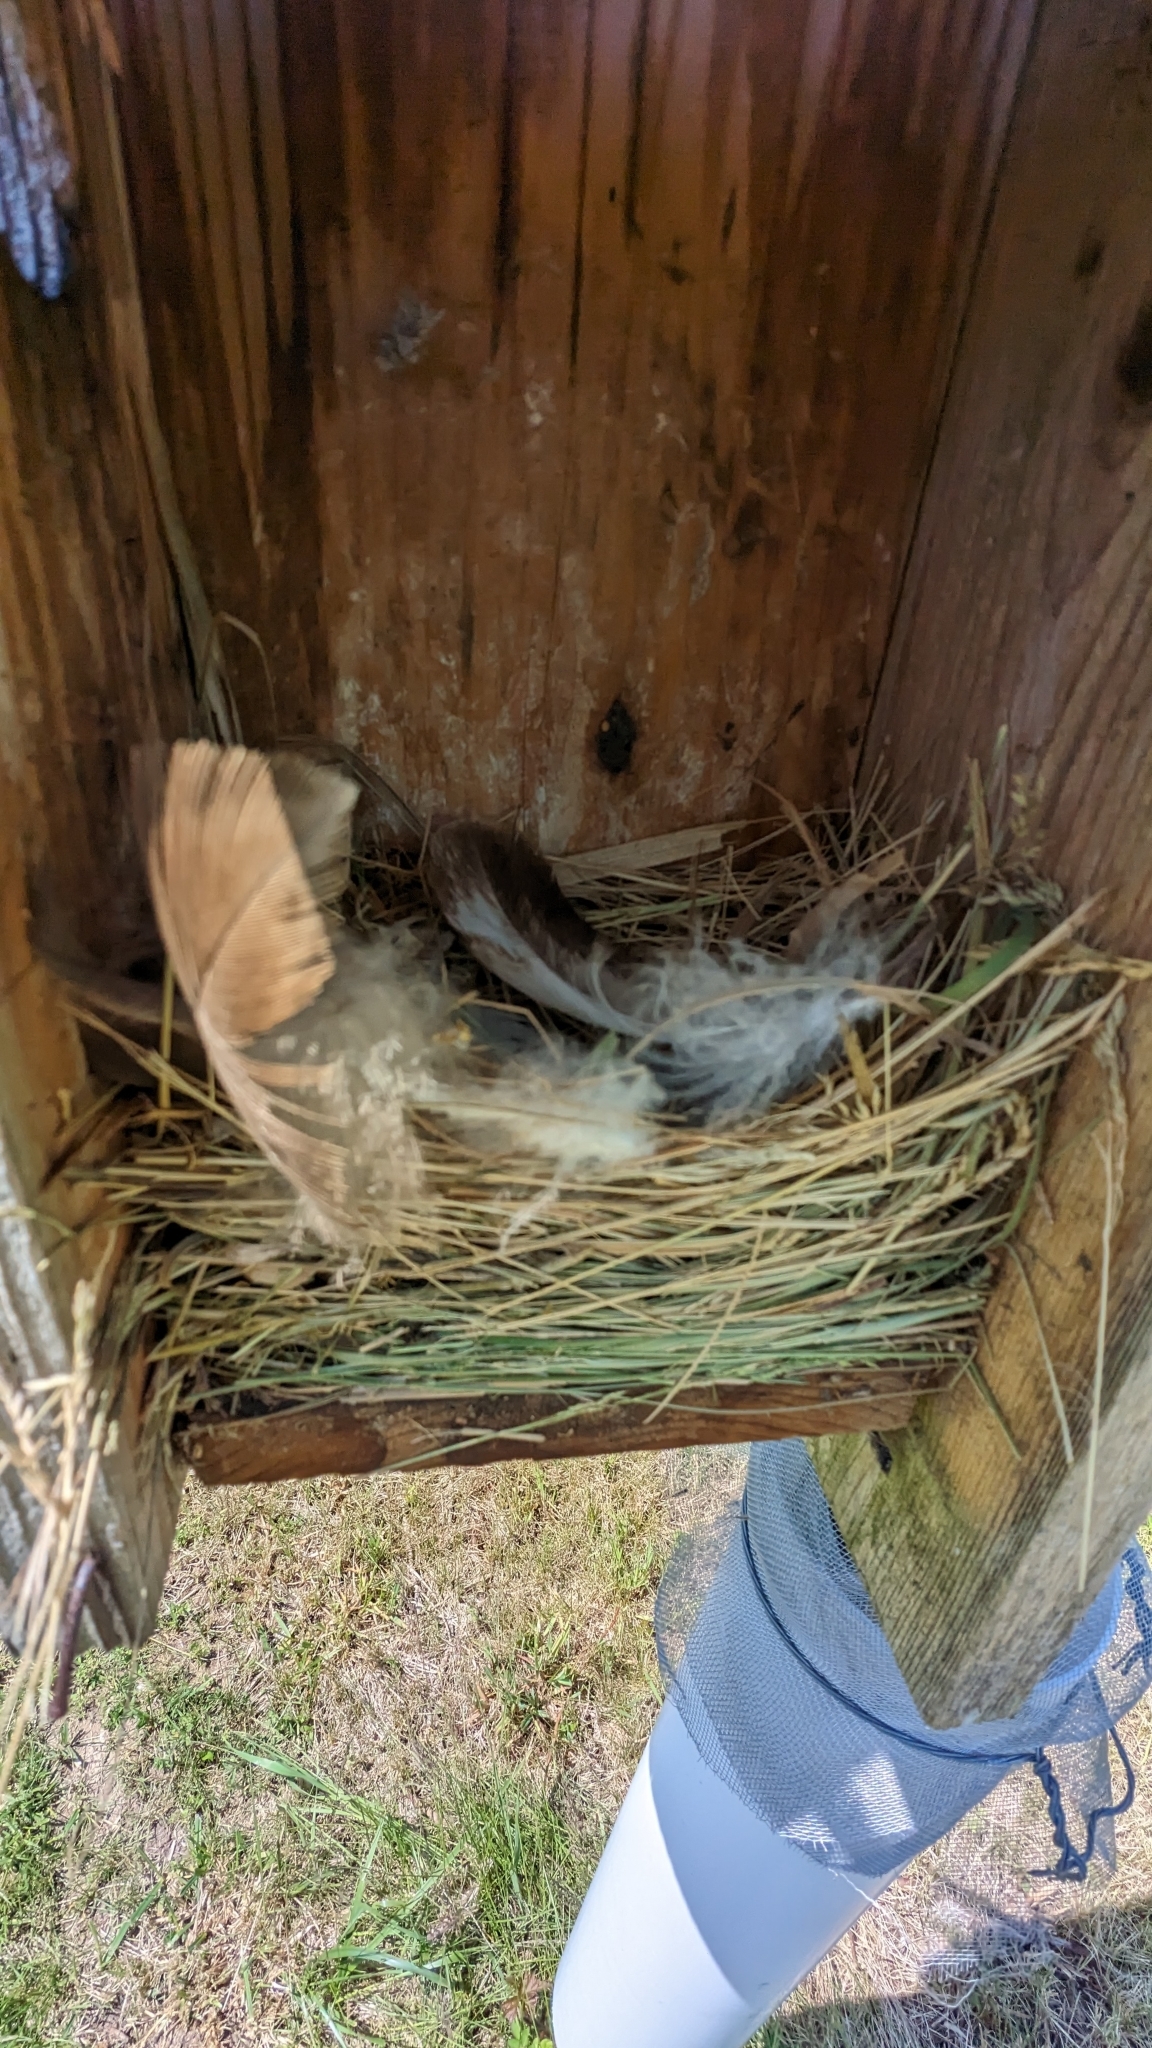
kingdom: Animalia
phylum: Chordata
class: Aves
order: Passeriformes
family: Hirundinidae
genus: Tachycineta
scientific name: Tachycineta bicolor
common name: Tree swallow
